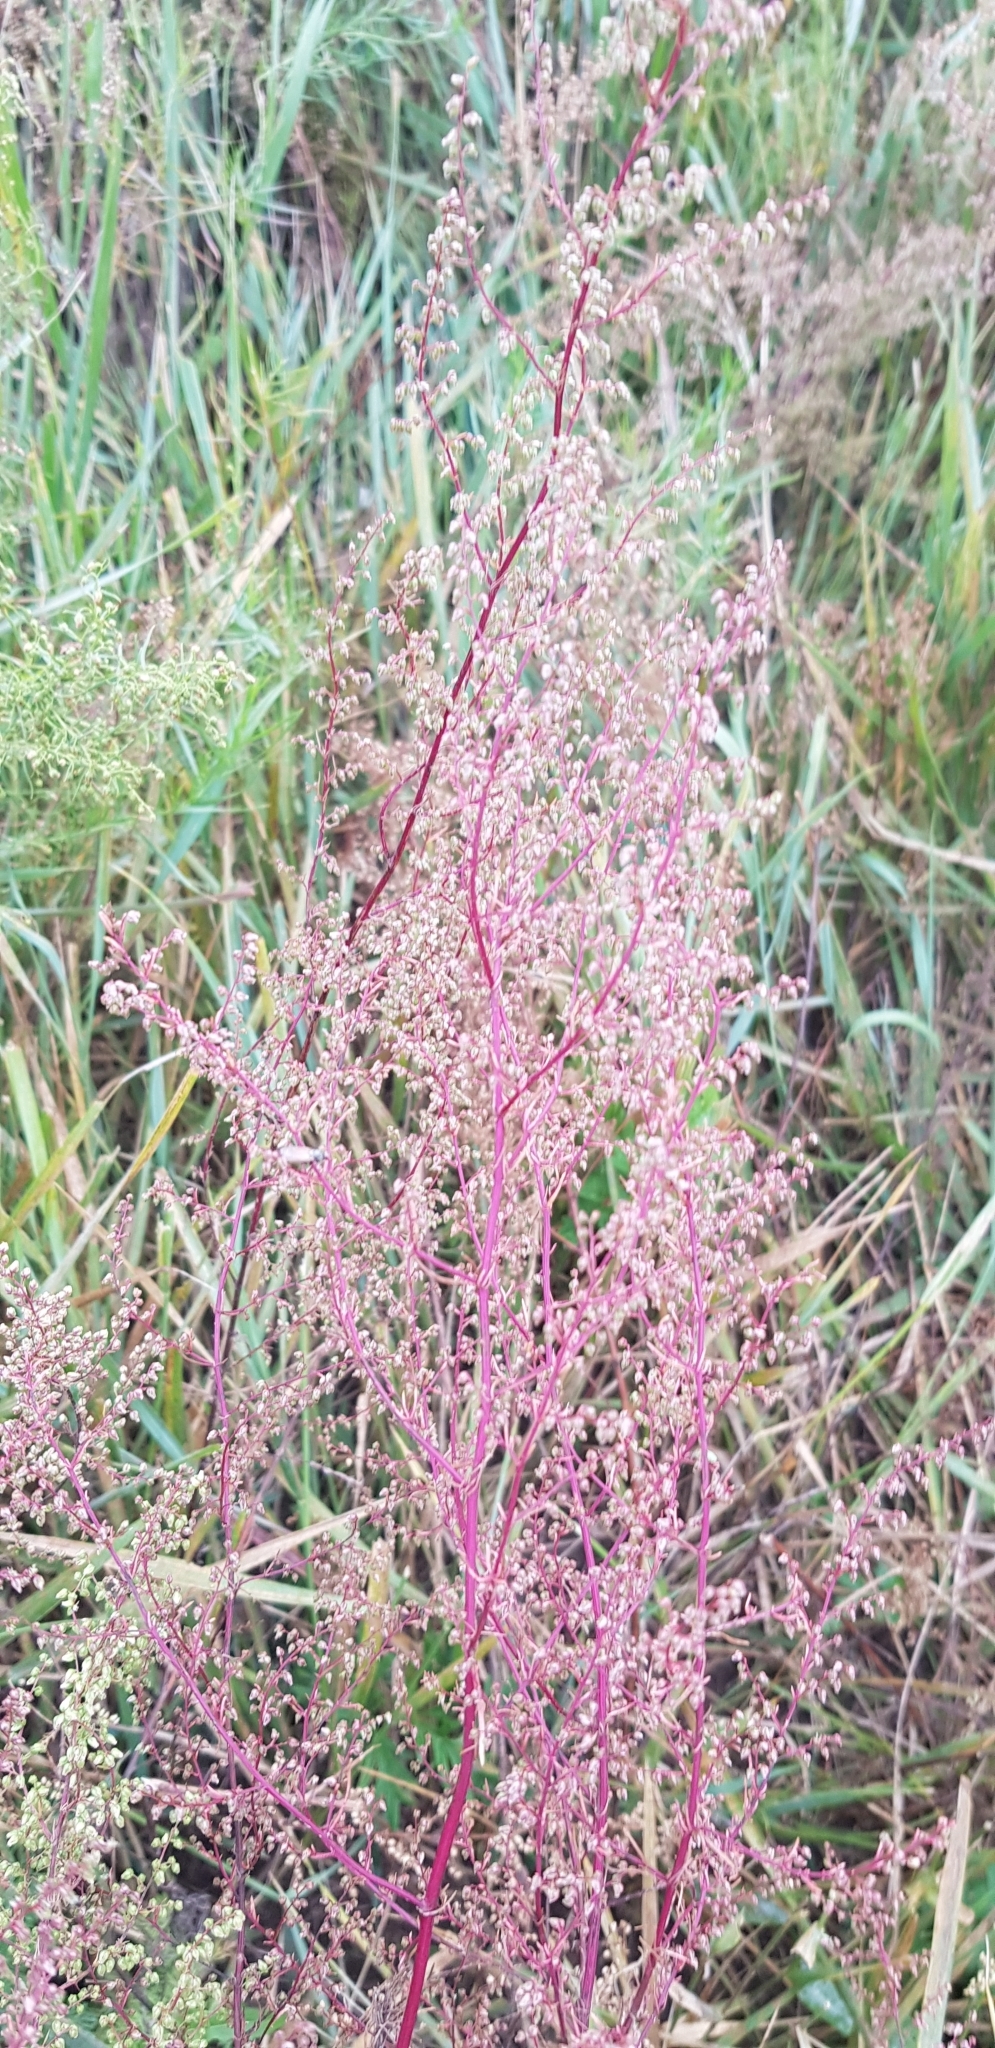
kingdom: Plantae
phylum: Tracheophyta
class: Magnoliopsida
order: Asterales
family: Asteraceae
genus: Artemisia
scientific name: Artemisia scoparia
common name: Redstem wormwood
